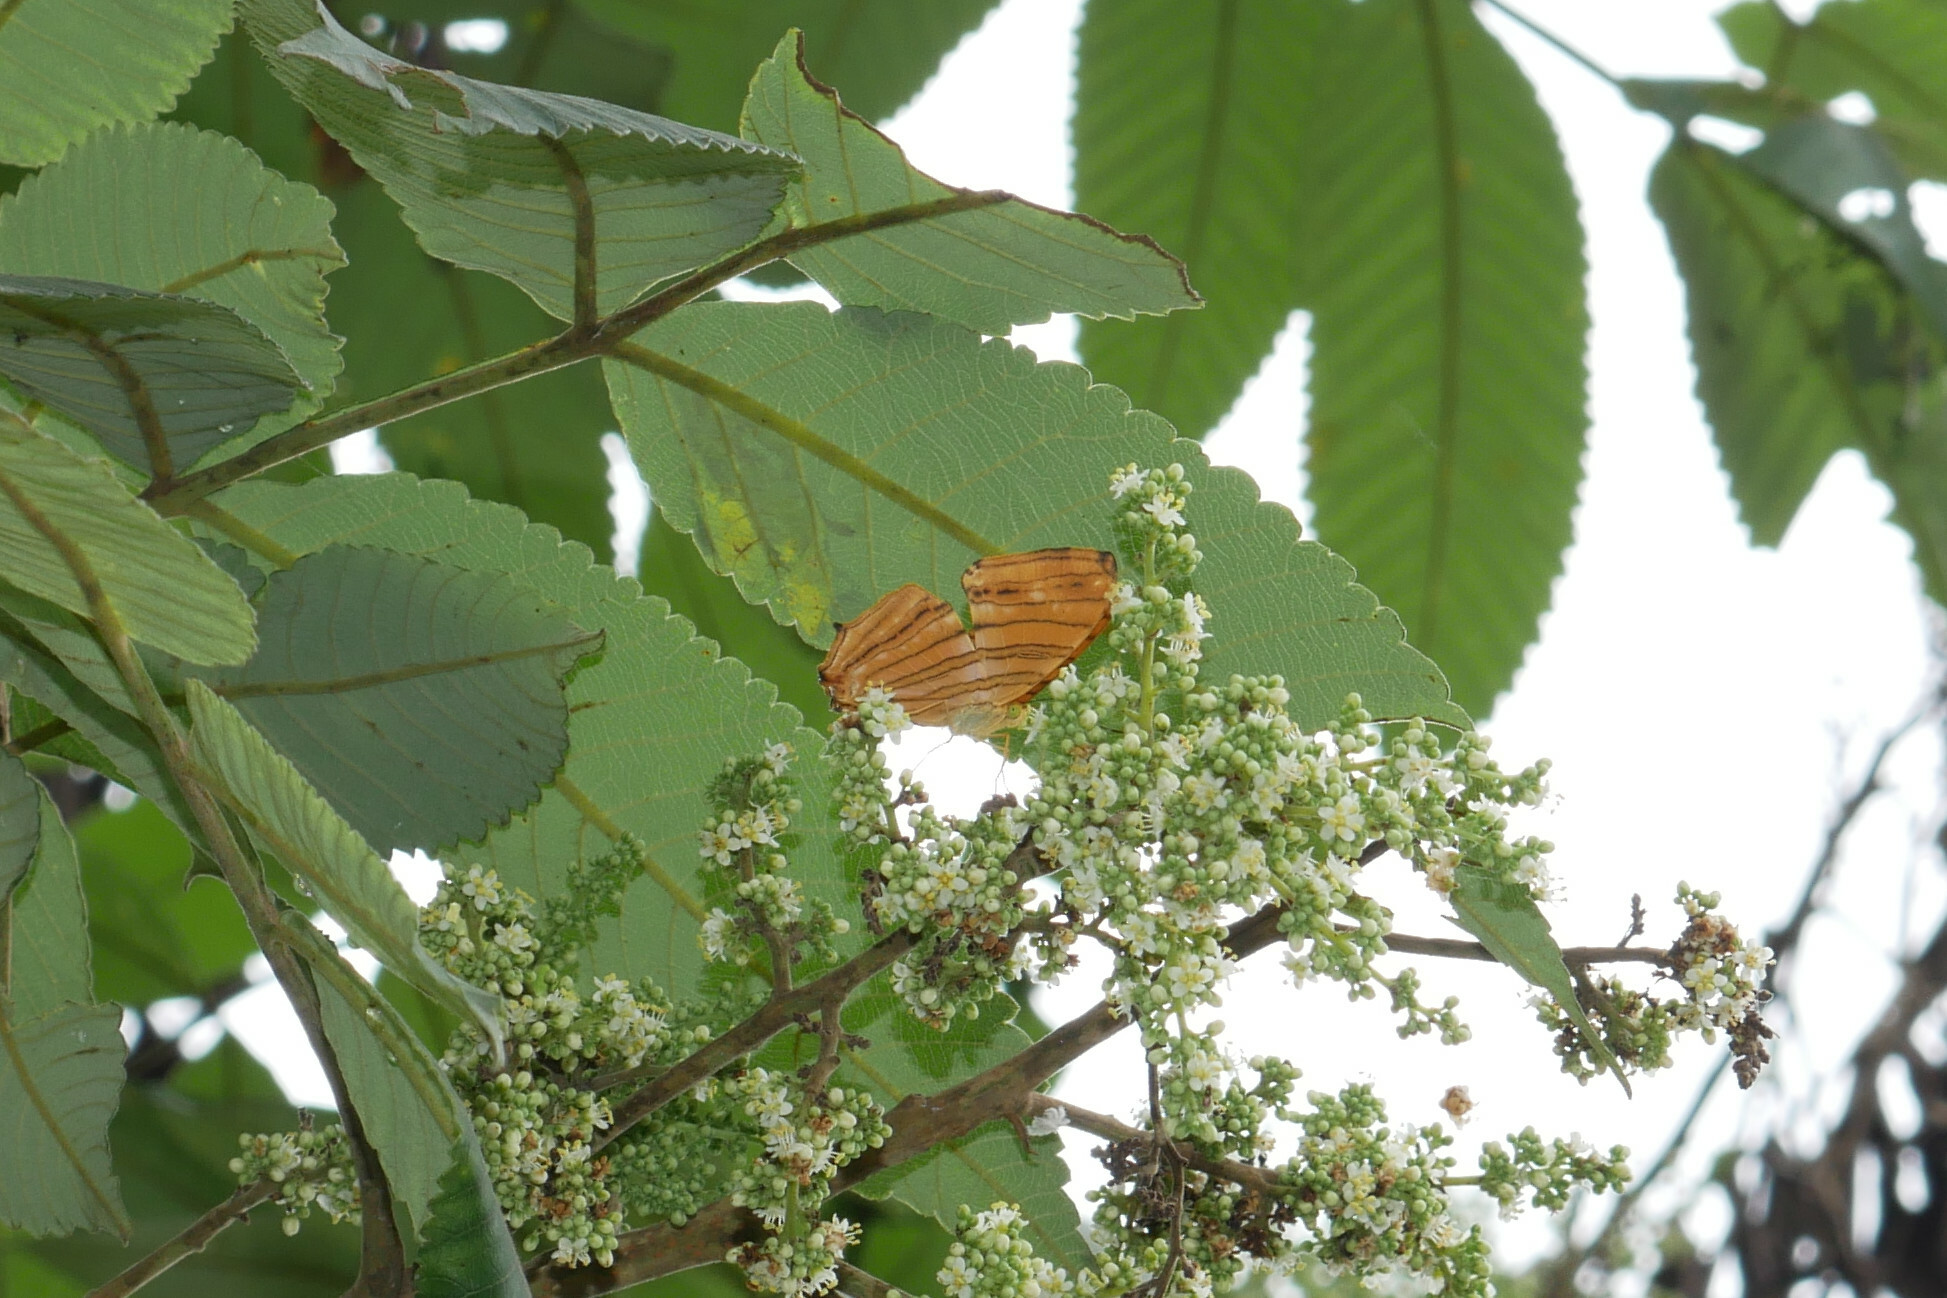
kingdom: Animalia
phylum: Arthropoda
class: Insecta
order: Lepidoptera
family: Nymphalidae
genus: Chersonesia
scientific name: Chersonesia risa
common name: Common maplet
